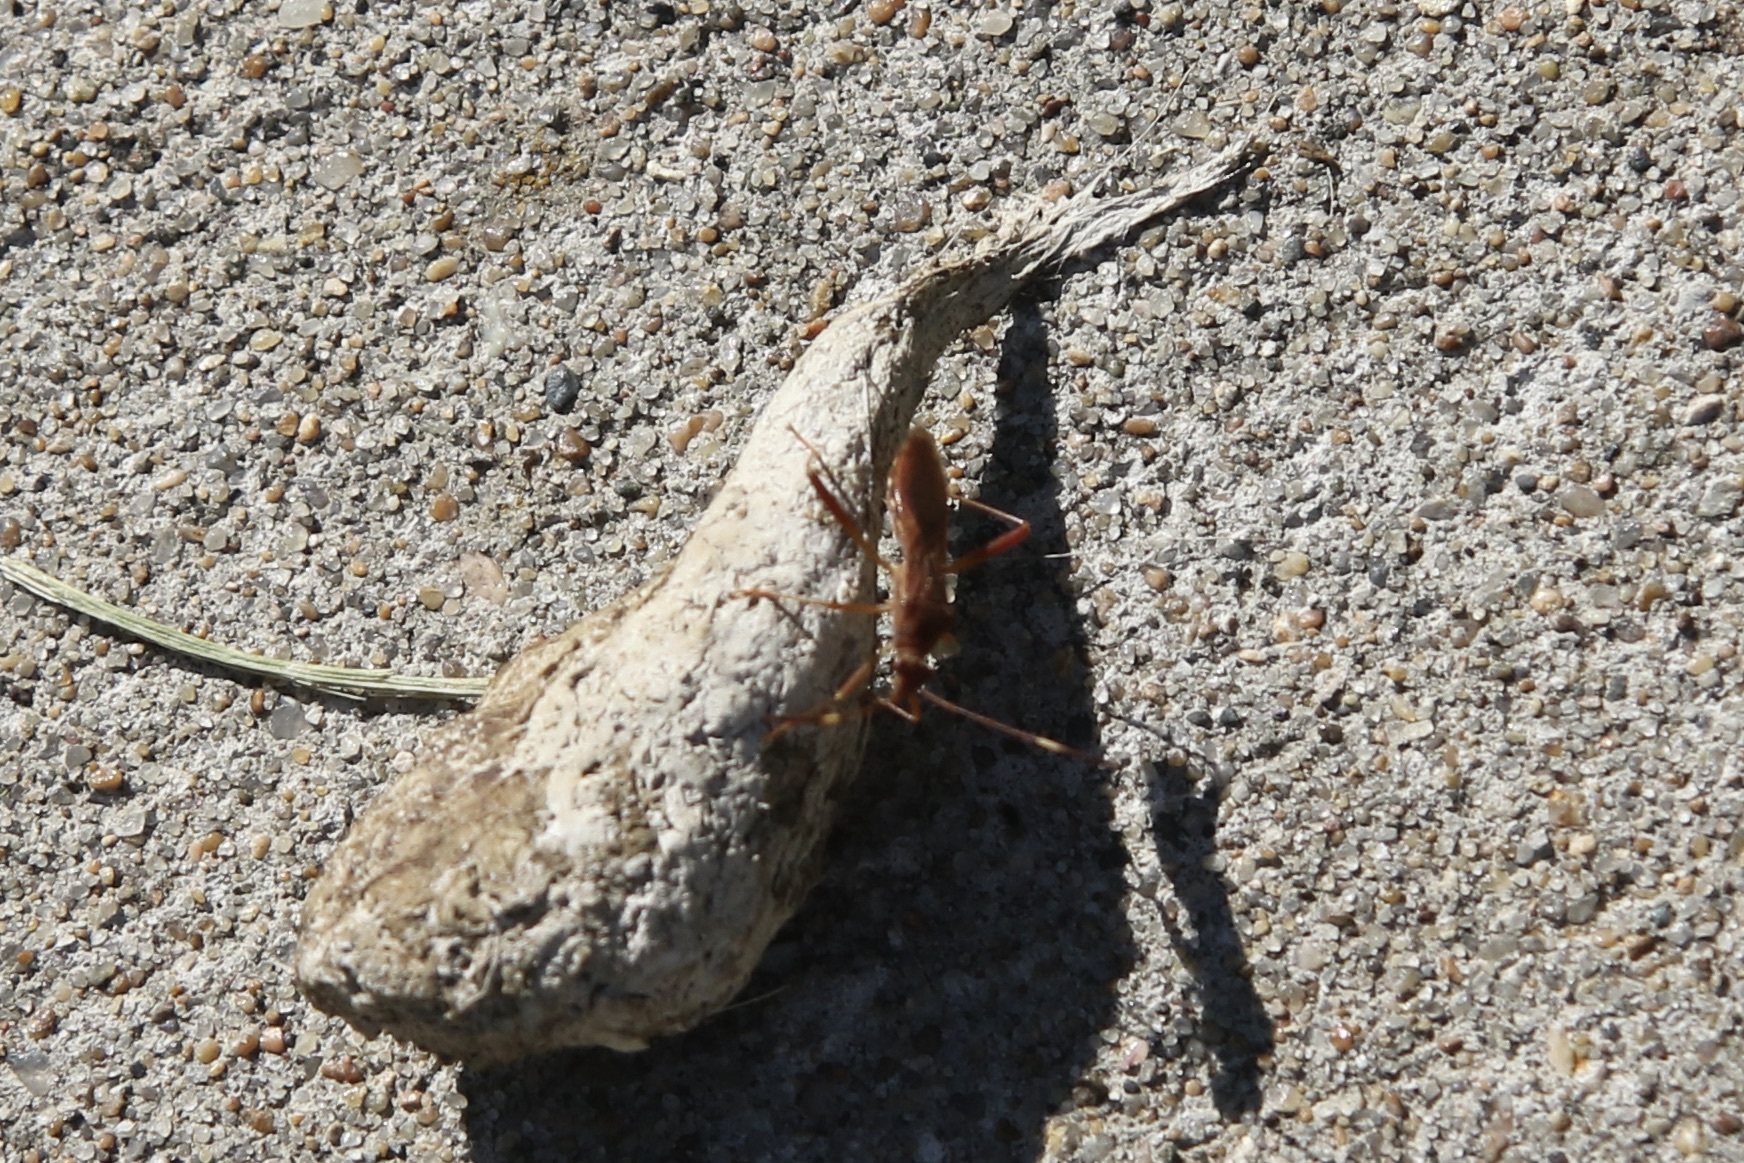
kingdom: Animalia
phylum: Arthropoda
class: Insecta
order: Hemiptera
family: Alydidae
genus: Megalotomus
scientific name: Megalotomus quinquespinosus
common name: Lupine bug
